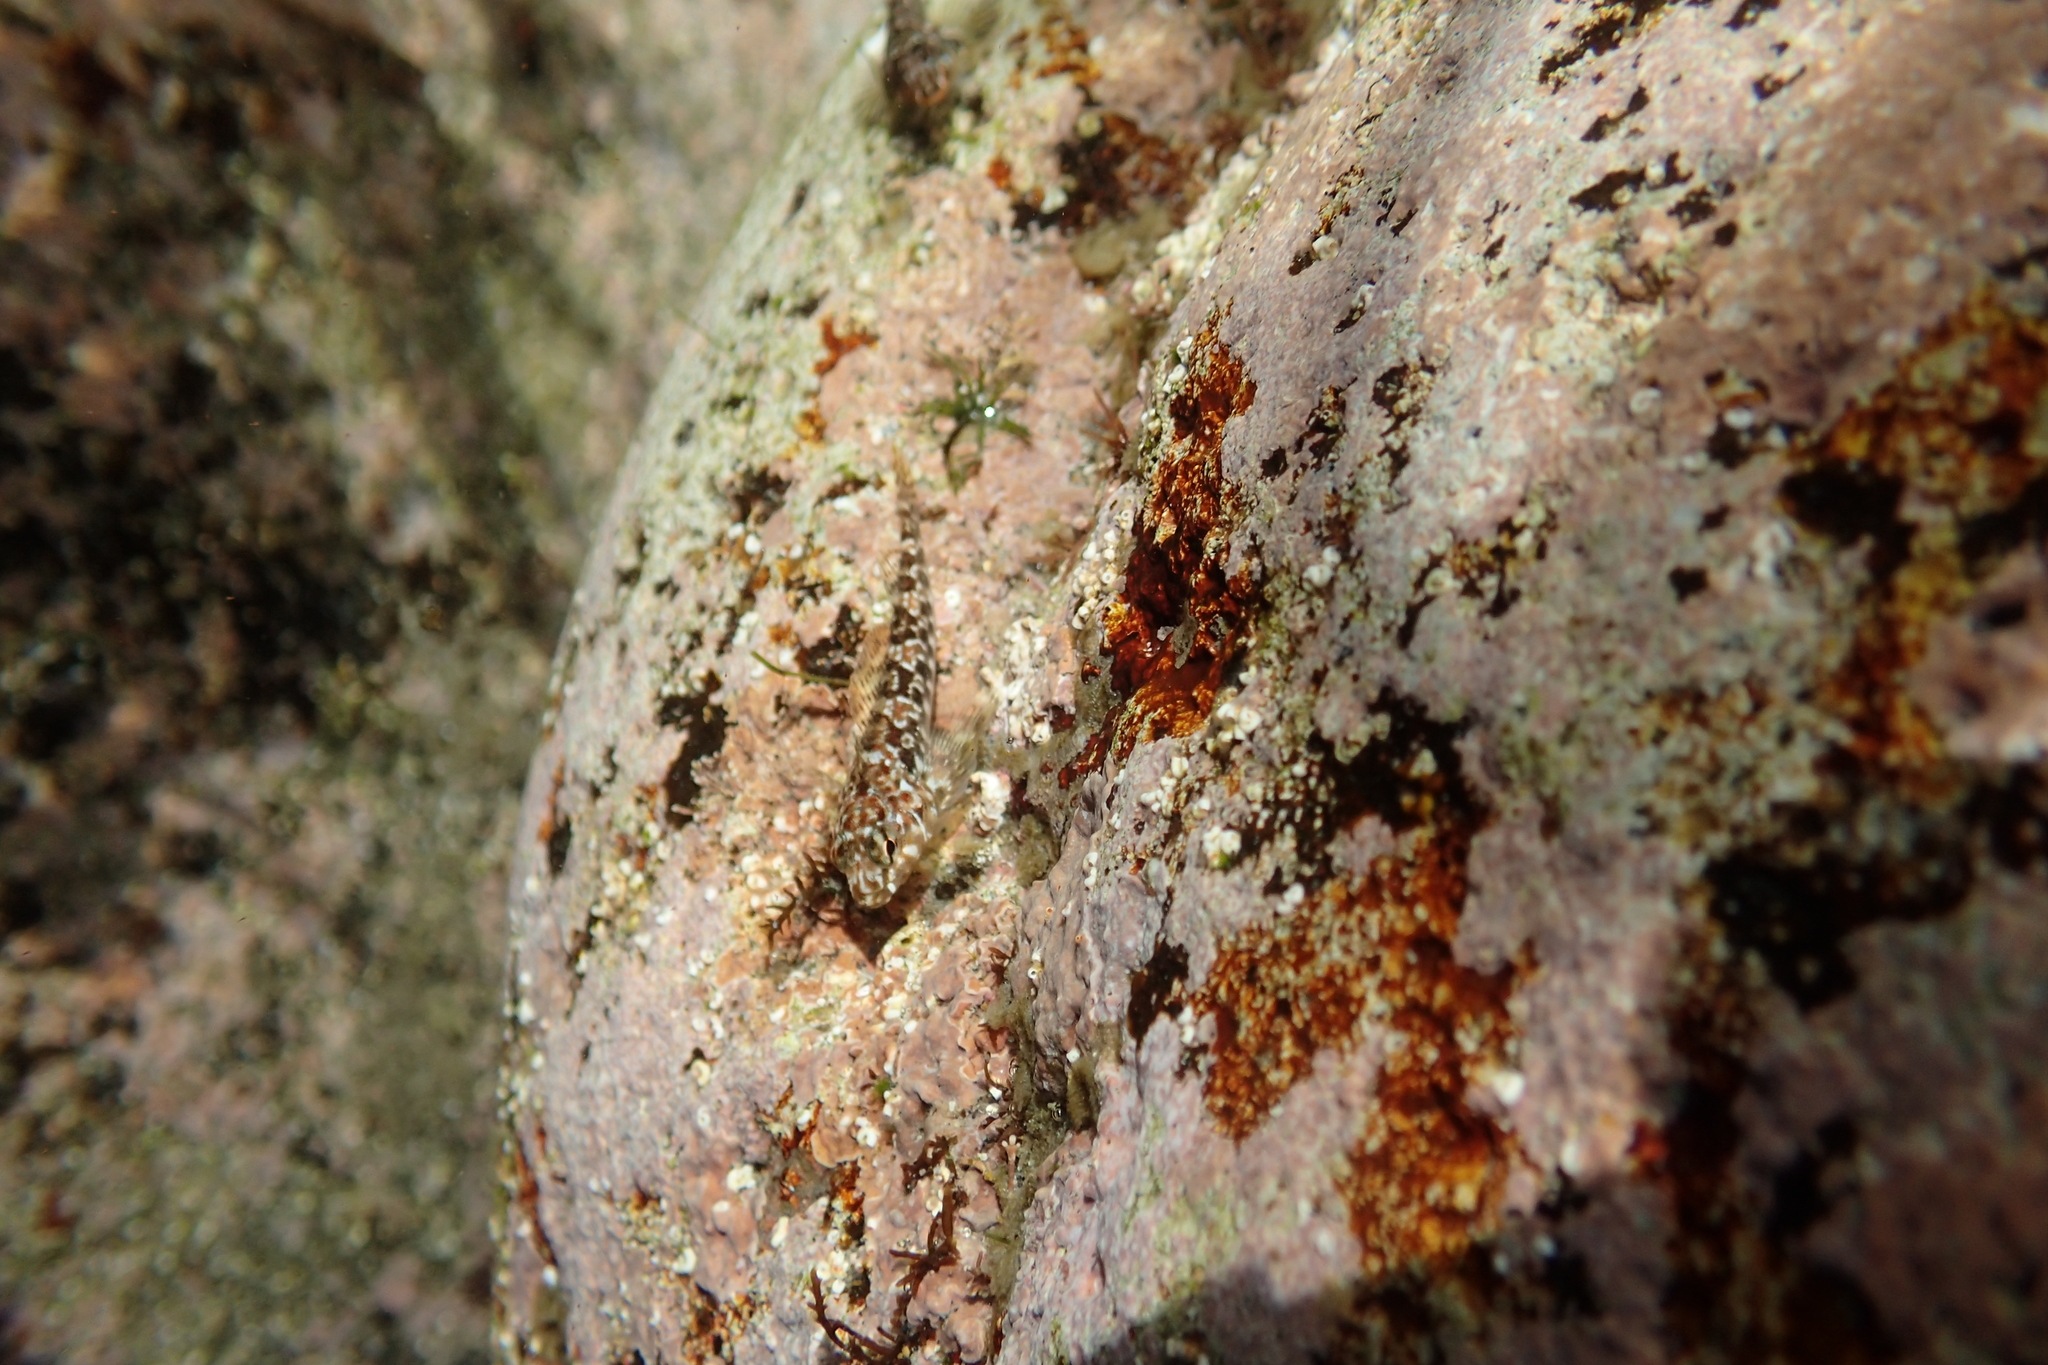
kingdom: Animalia
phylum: Chordata
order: Perciformes
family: Tripterygiidae
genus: Bellapiscis
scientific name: Bellapiscis medius
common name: Twister
